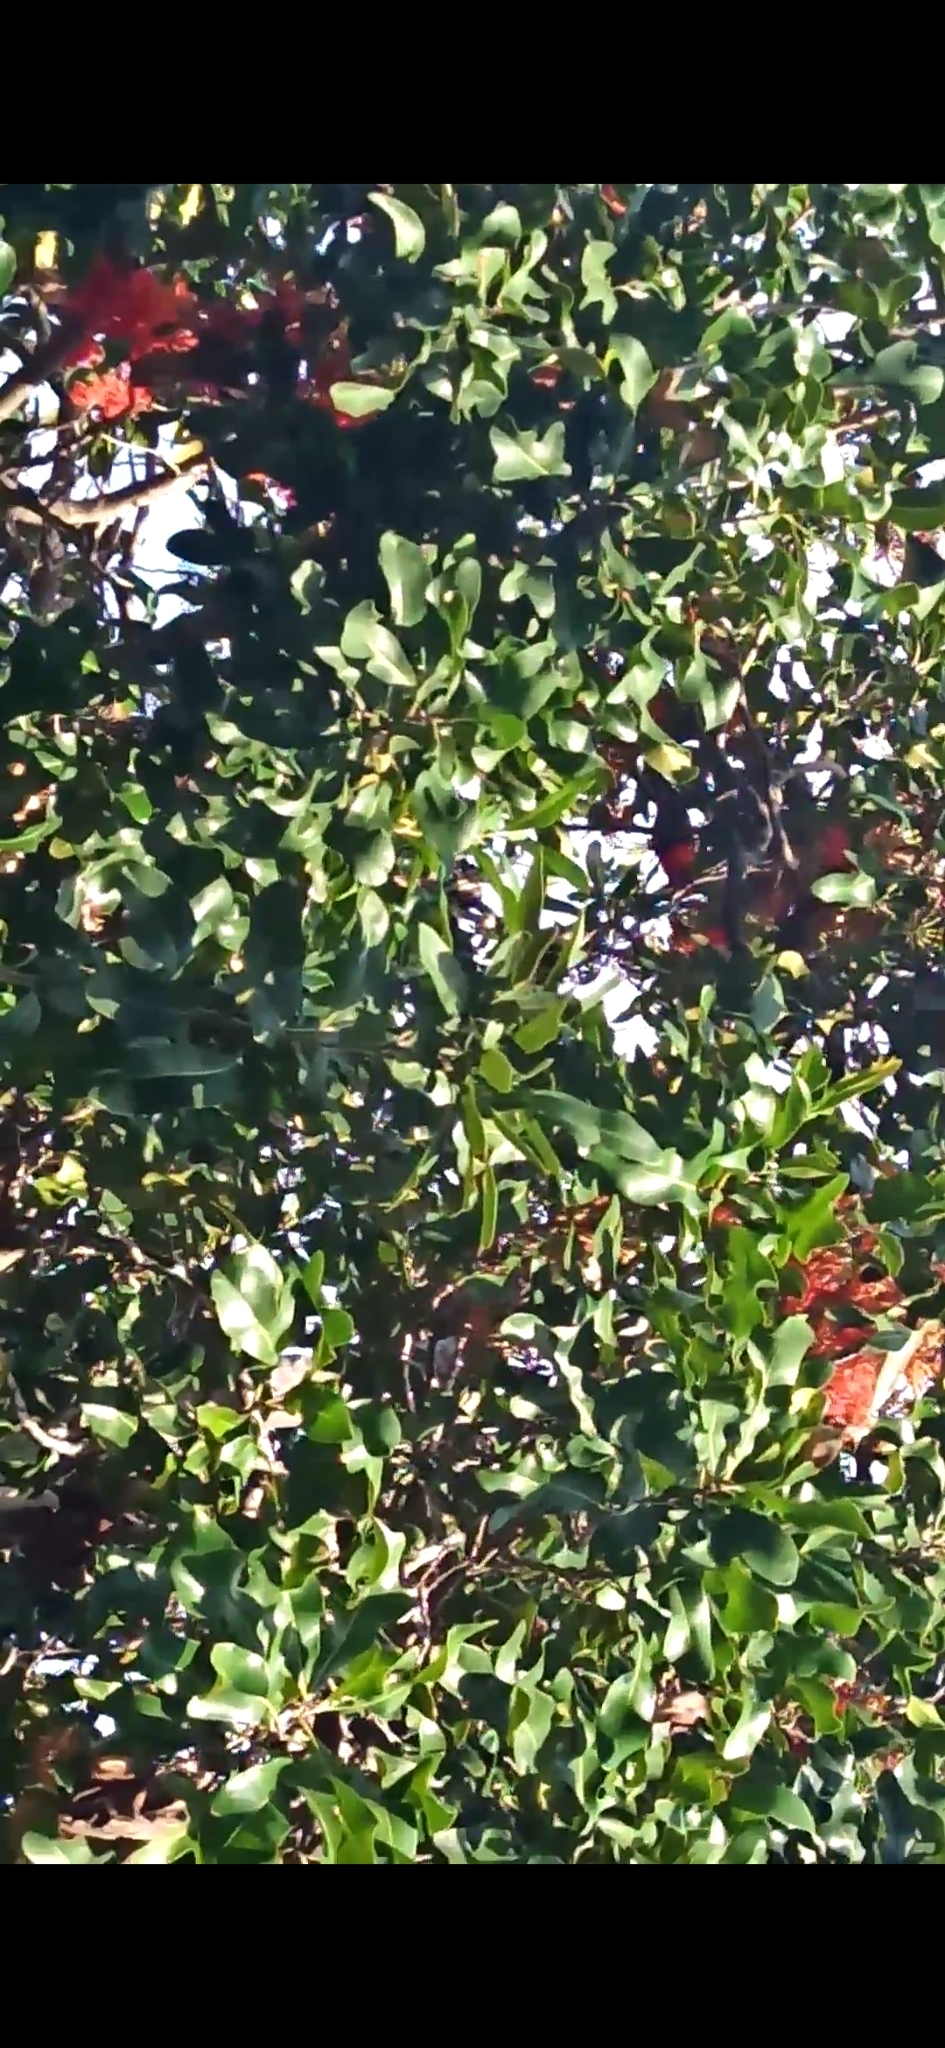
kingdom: Animalia
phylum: Chordata
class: Aves
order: Psittaciformes
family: Psittacidae
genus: Trichoglossus
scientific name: Trichoglossus haematodus
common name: Coconut lorikeet
